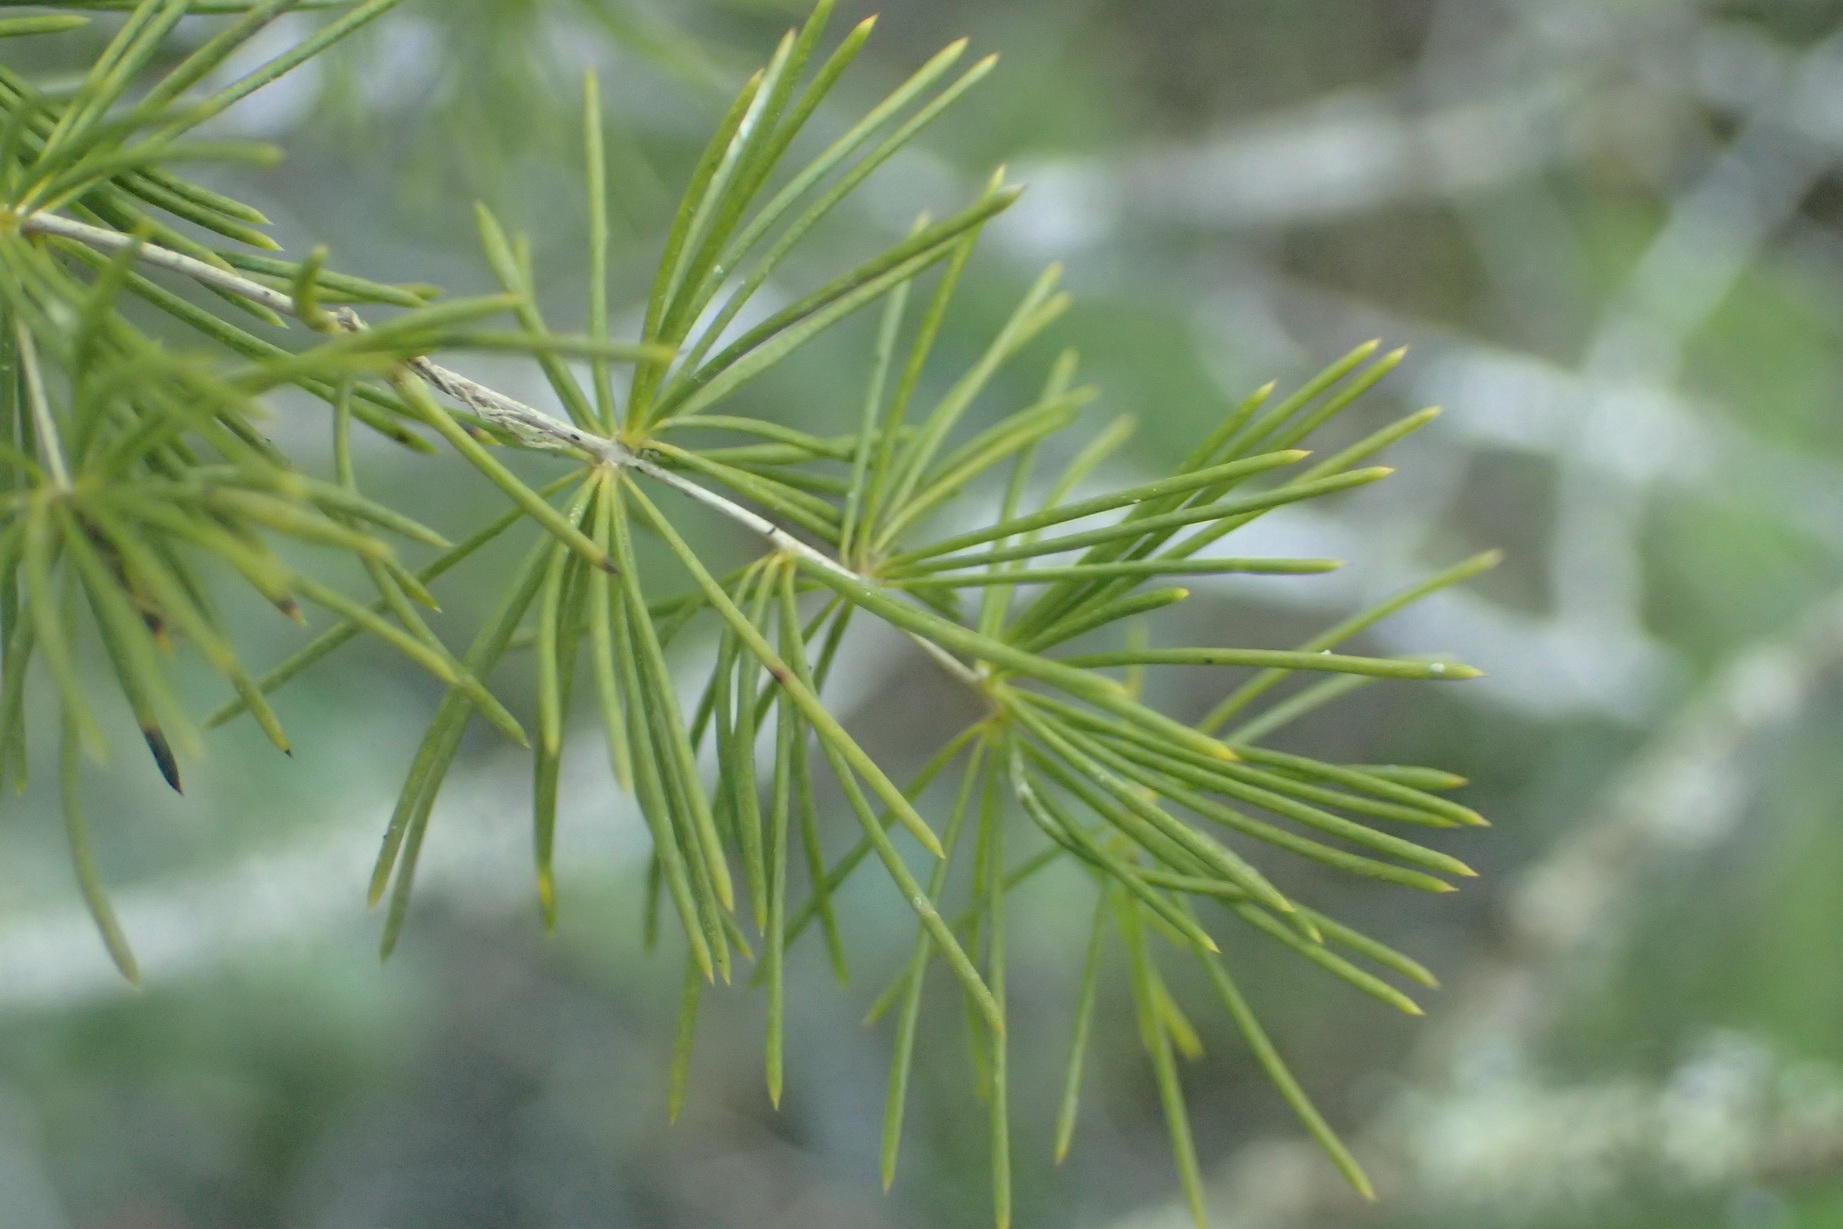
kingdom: Plantae
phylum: Tracheophyta
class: Liliopsida
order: Asparagales
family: Asparagaceae
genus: Asparagus
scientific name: Asparagus macowanii
